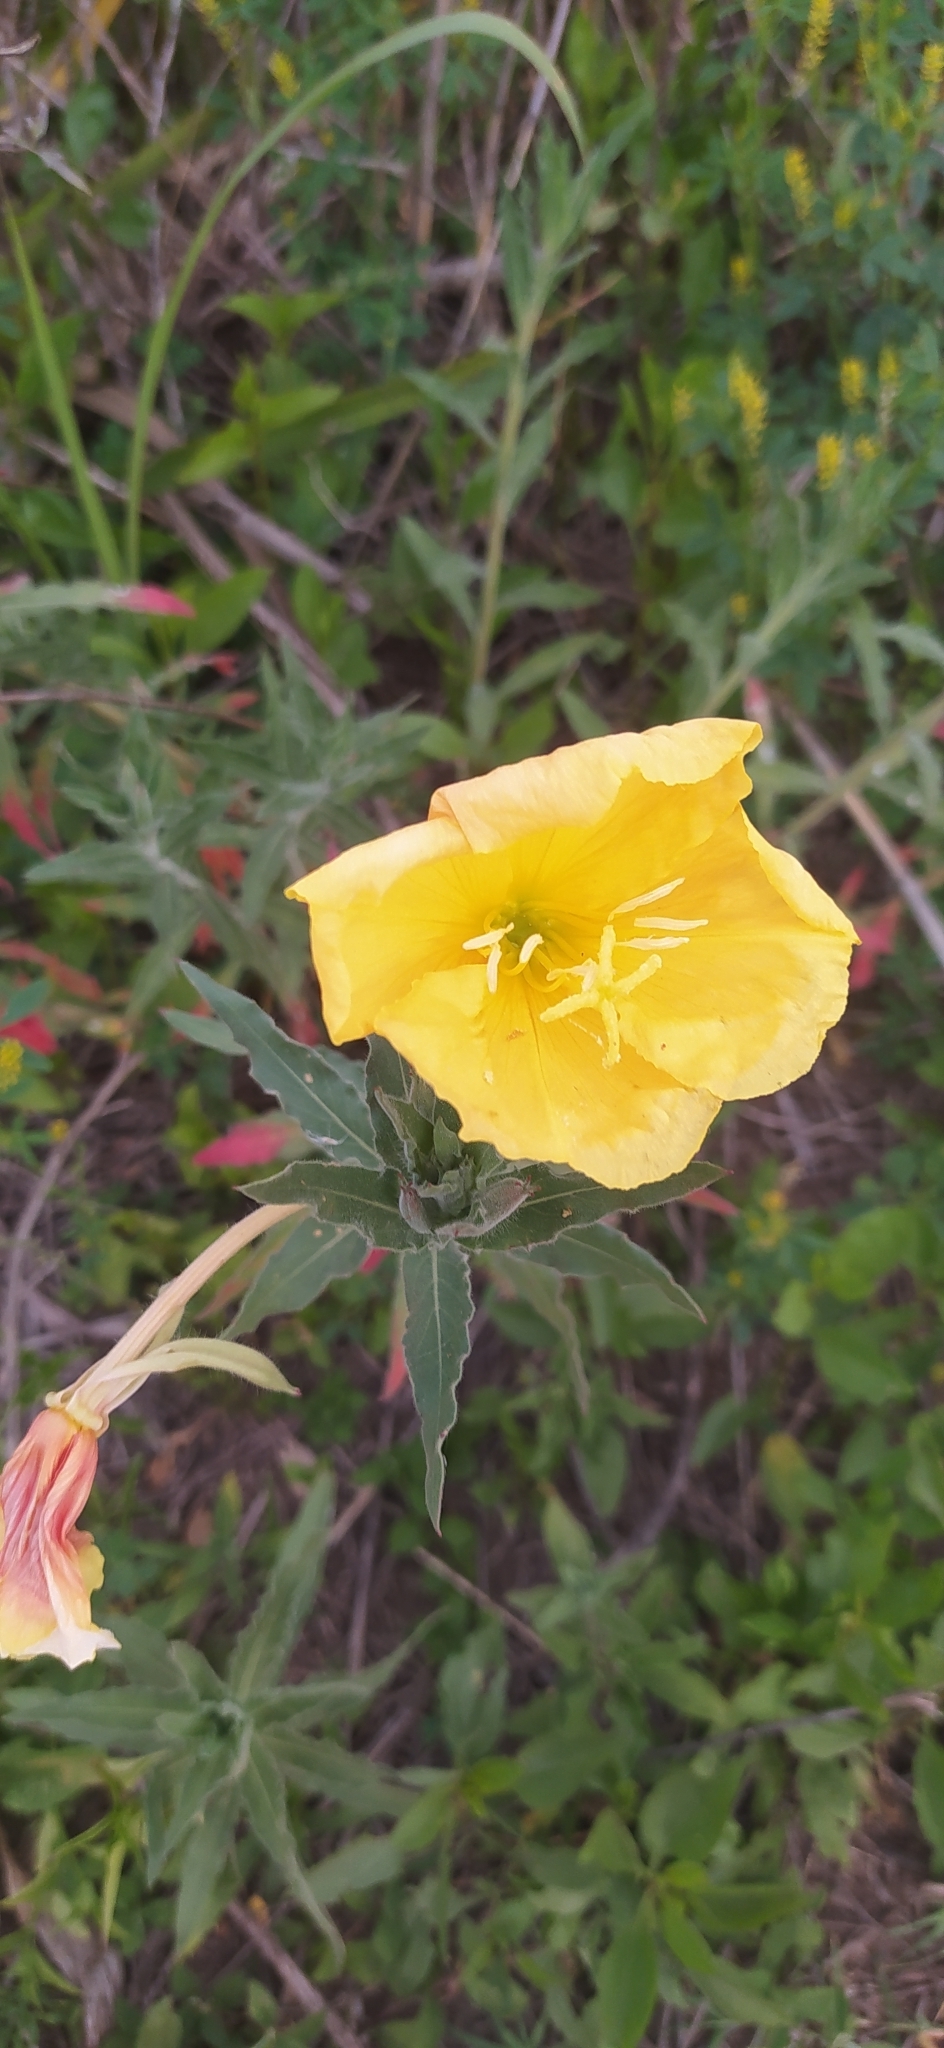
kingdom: Plantae
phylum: Tracheophyta
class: Magnoliopsida
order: Myrtales
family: Onagraceae
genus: Oenothera
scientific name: Oenothera affinis
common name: Longflower evening primrose
